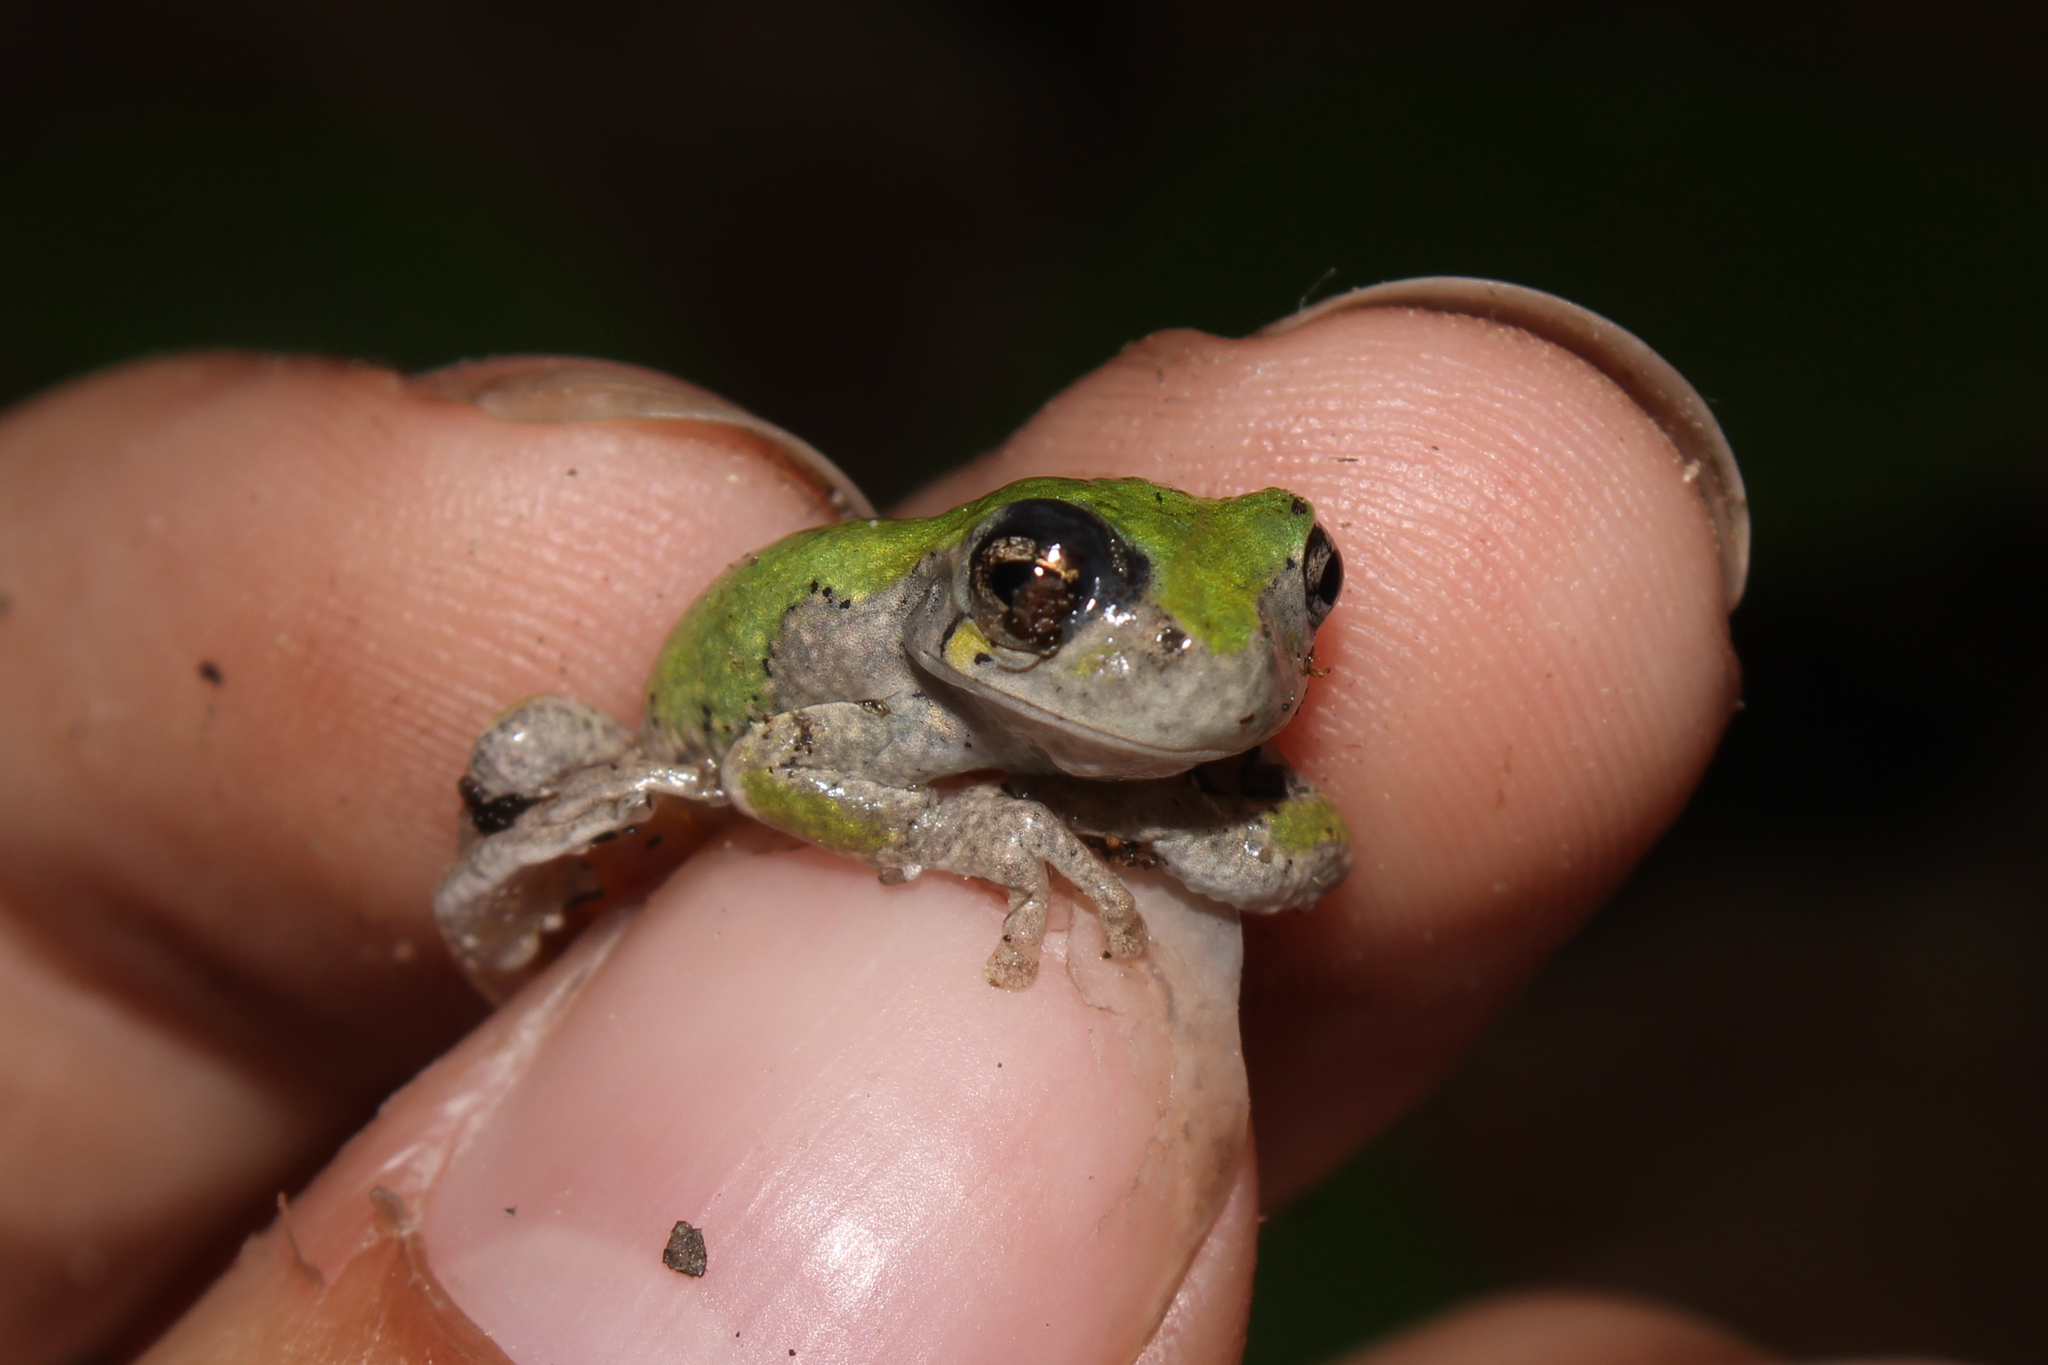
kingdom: Animalia
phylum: Chordata
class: Amphibia
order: Anura
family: Hylidae
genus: Dryophytes
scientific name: Dryophytes versicolor
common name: Gray treefrog
